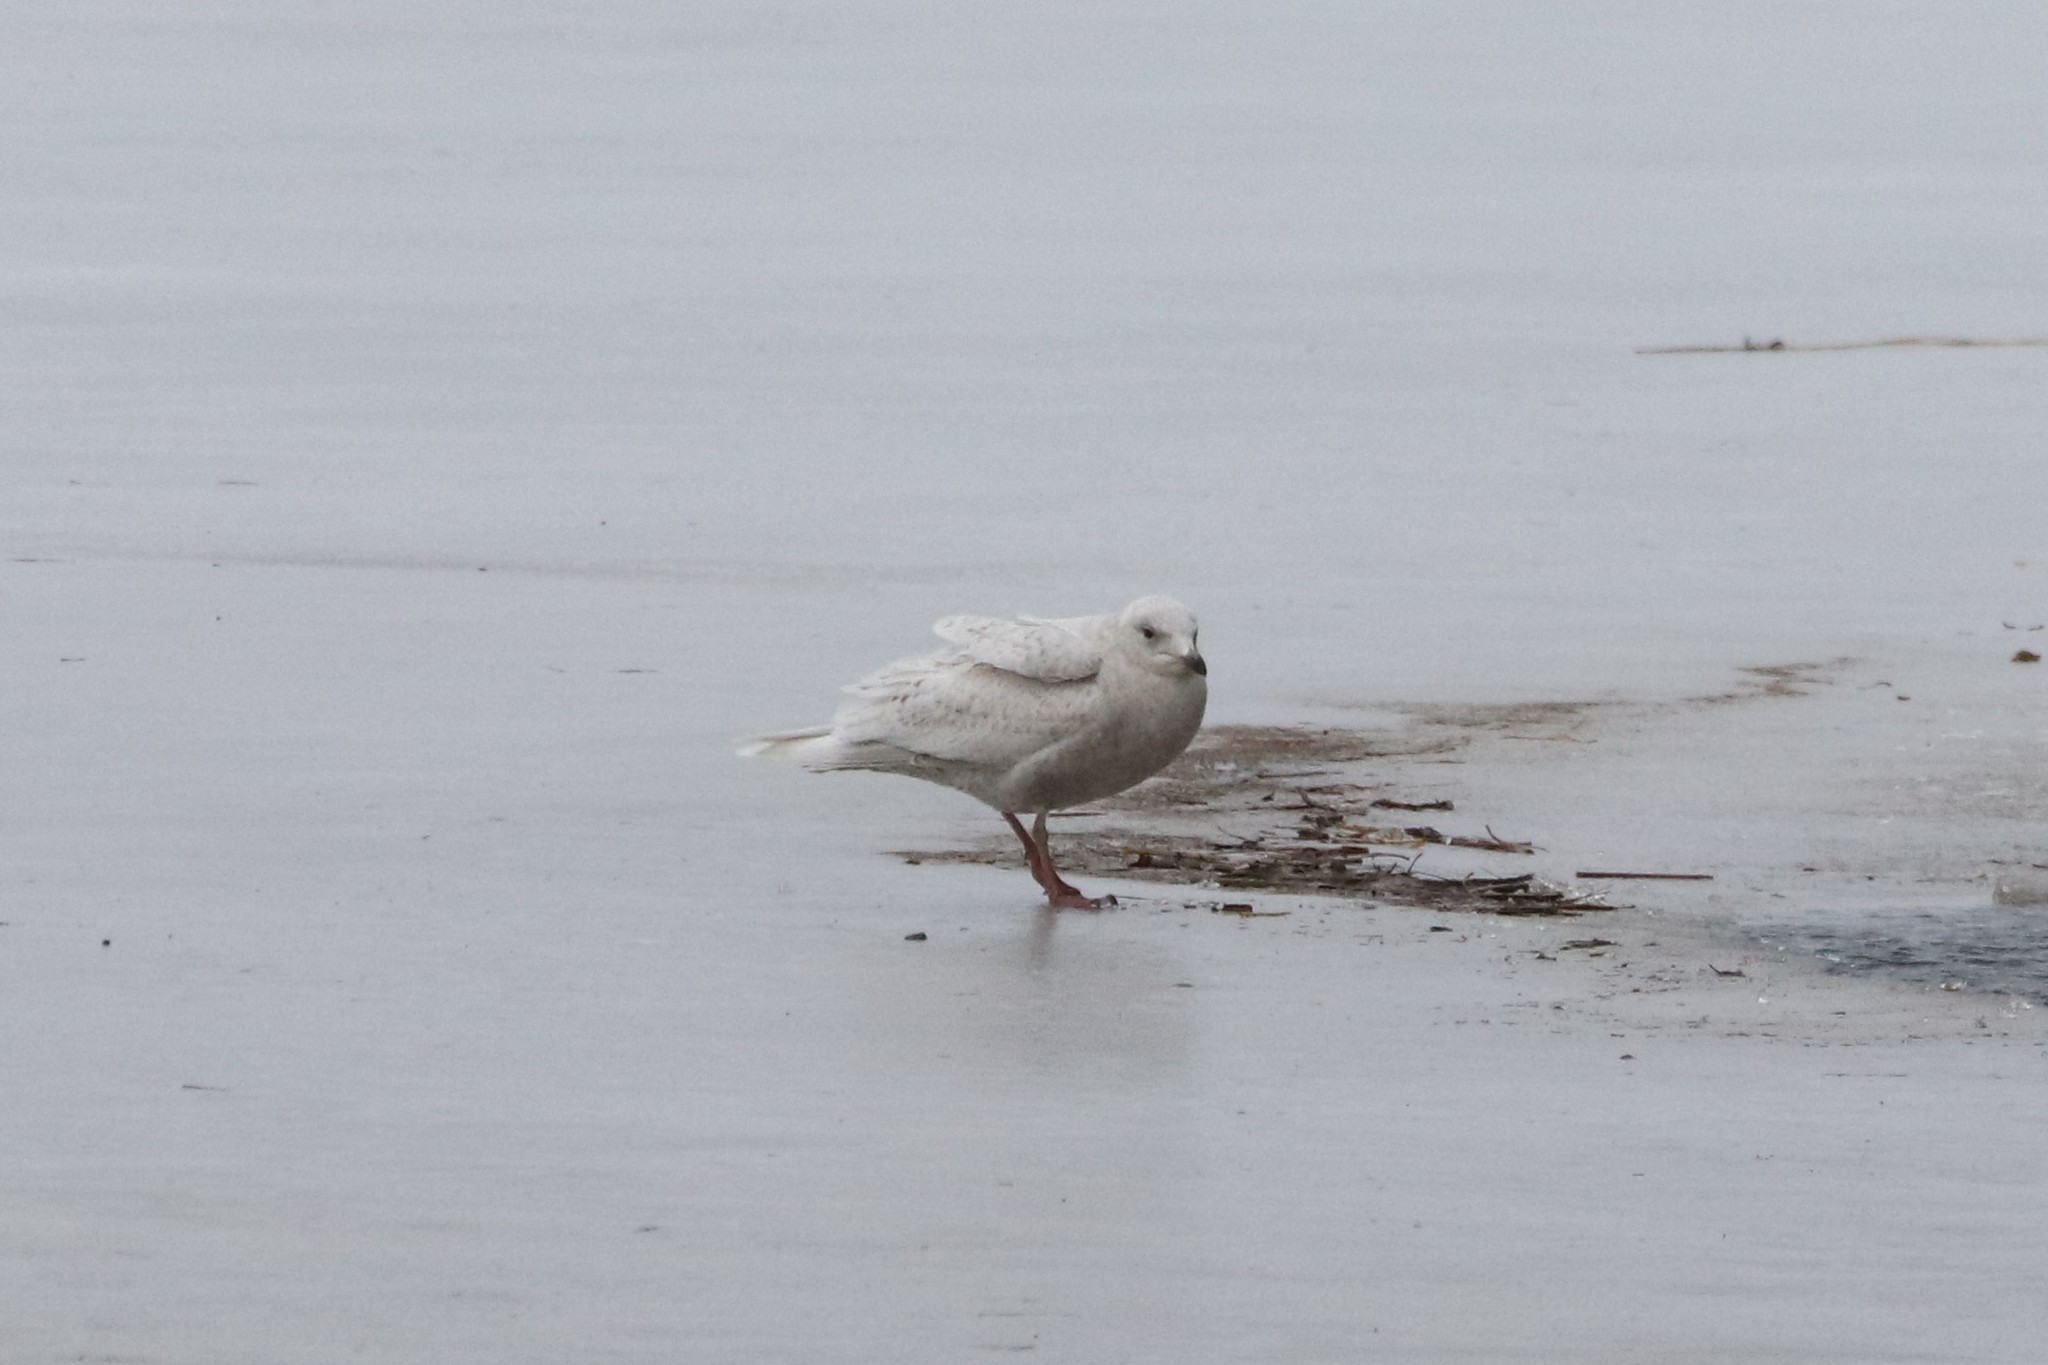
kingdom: Animalia
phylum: Chordata
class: Aves
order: Charadriiformes
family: Laridae
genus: Larus
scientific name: Larus glaucoides
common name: Iceland gull
